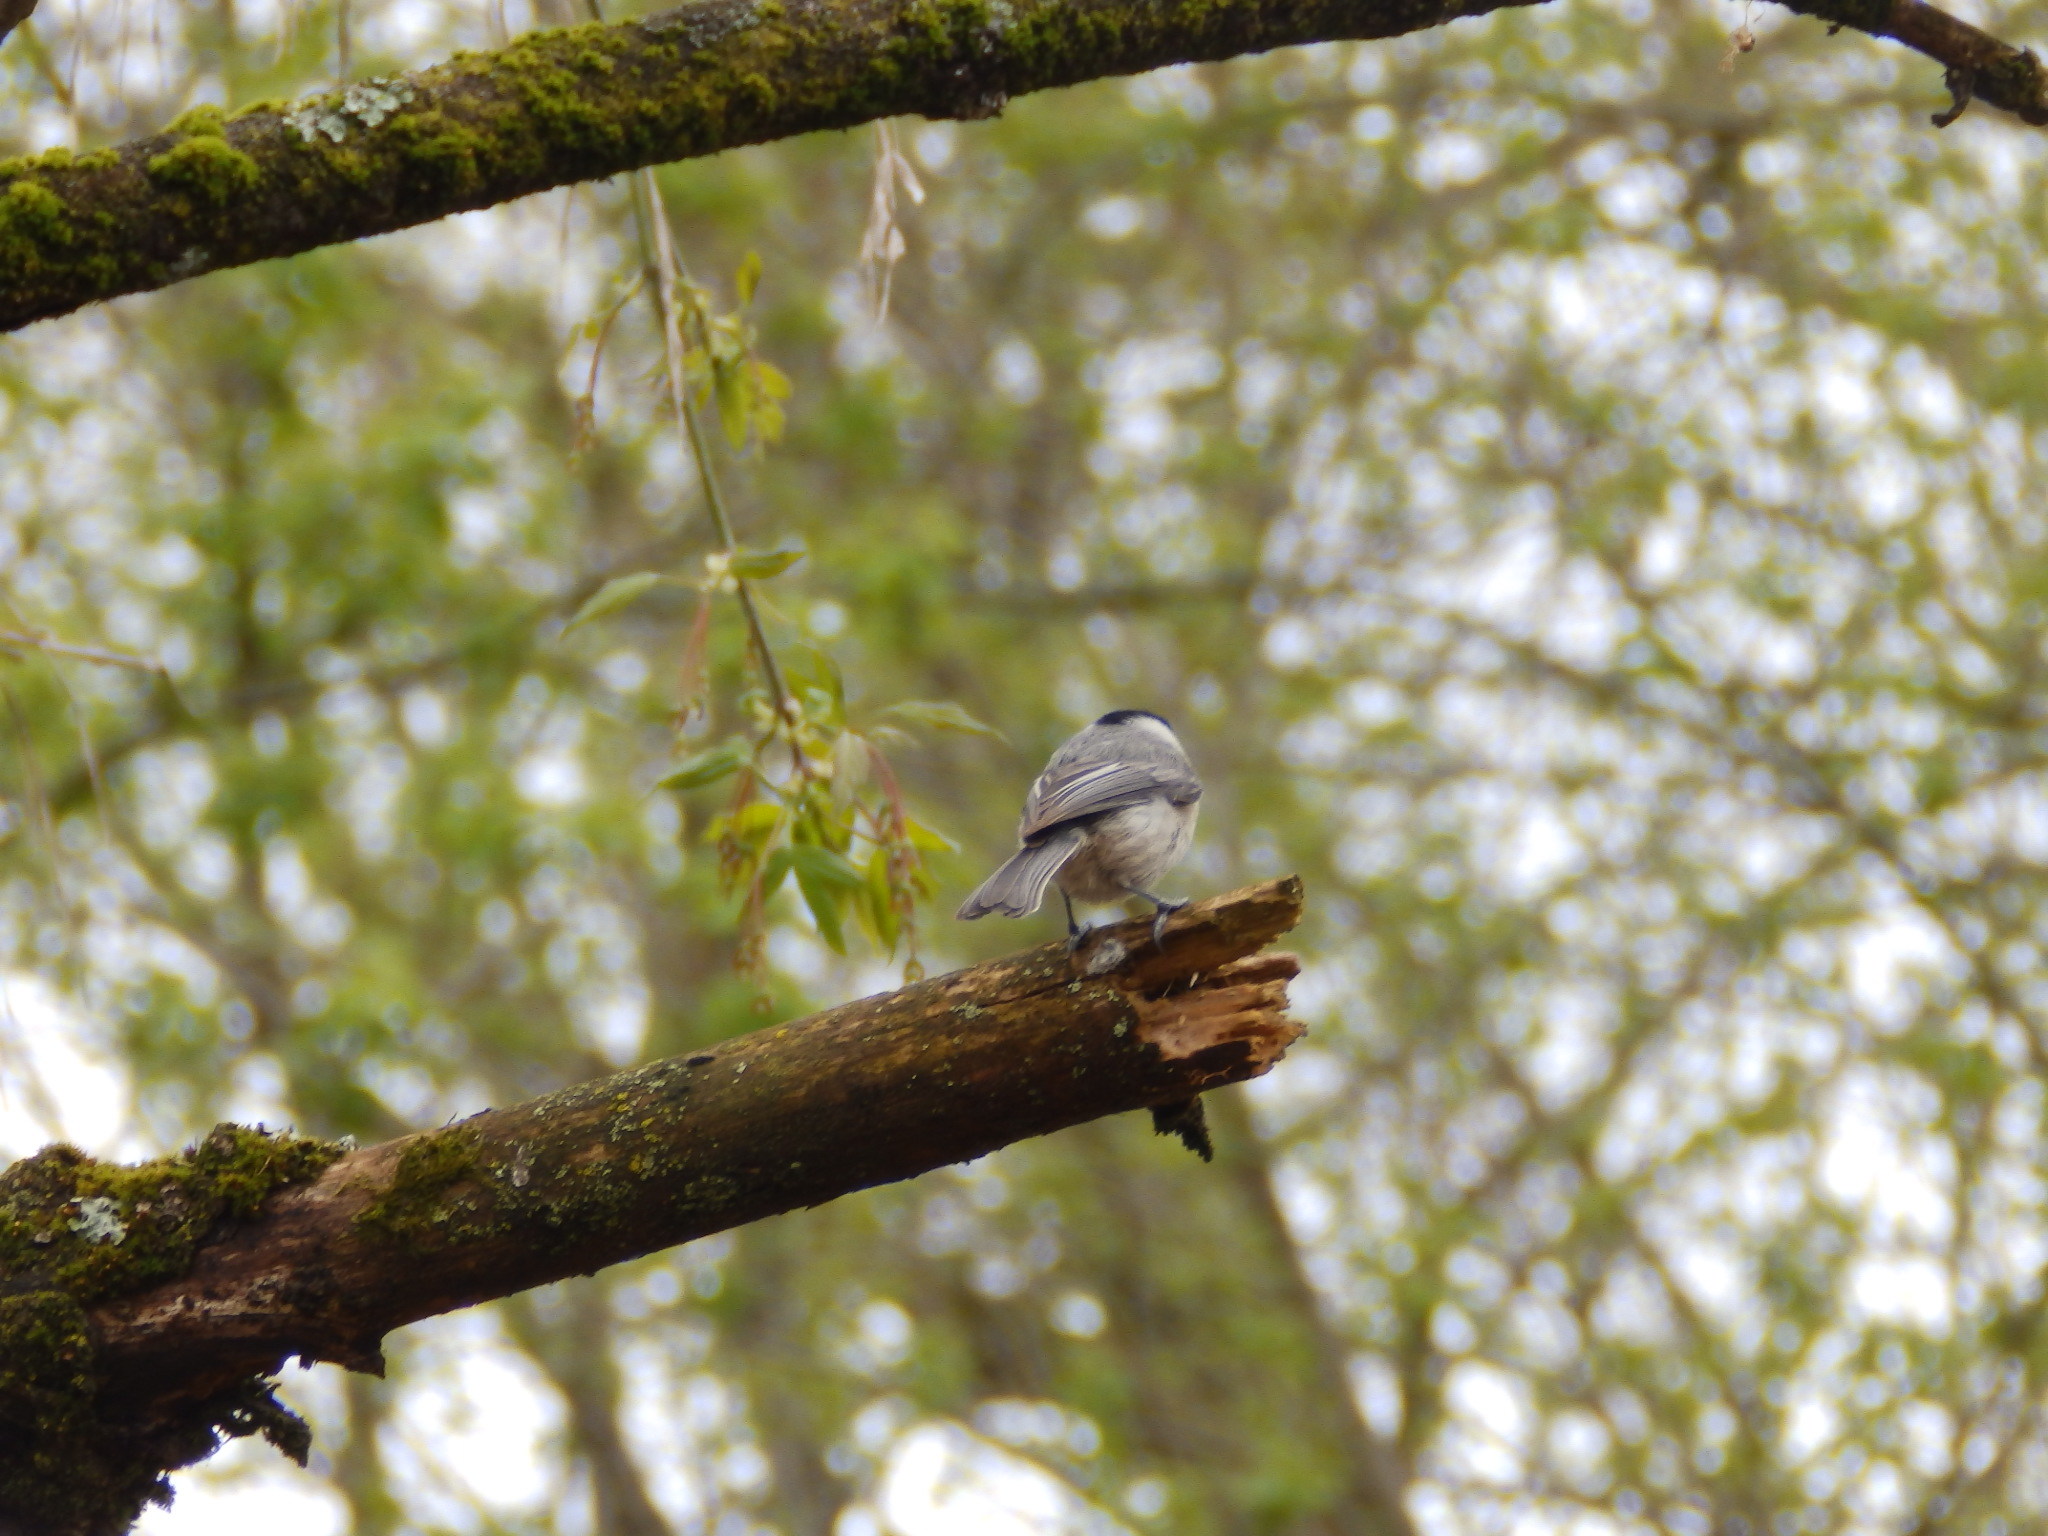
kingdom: Animalia
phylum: Chordata
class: Aves
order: Passeriformes
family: Paridae
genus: Poecile
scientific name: Poecile carolinensis
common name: Carolina chickadee
